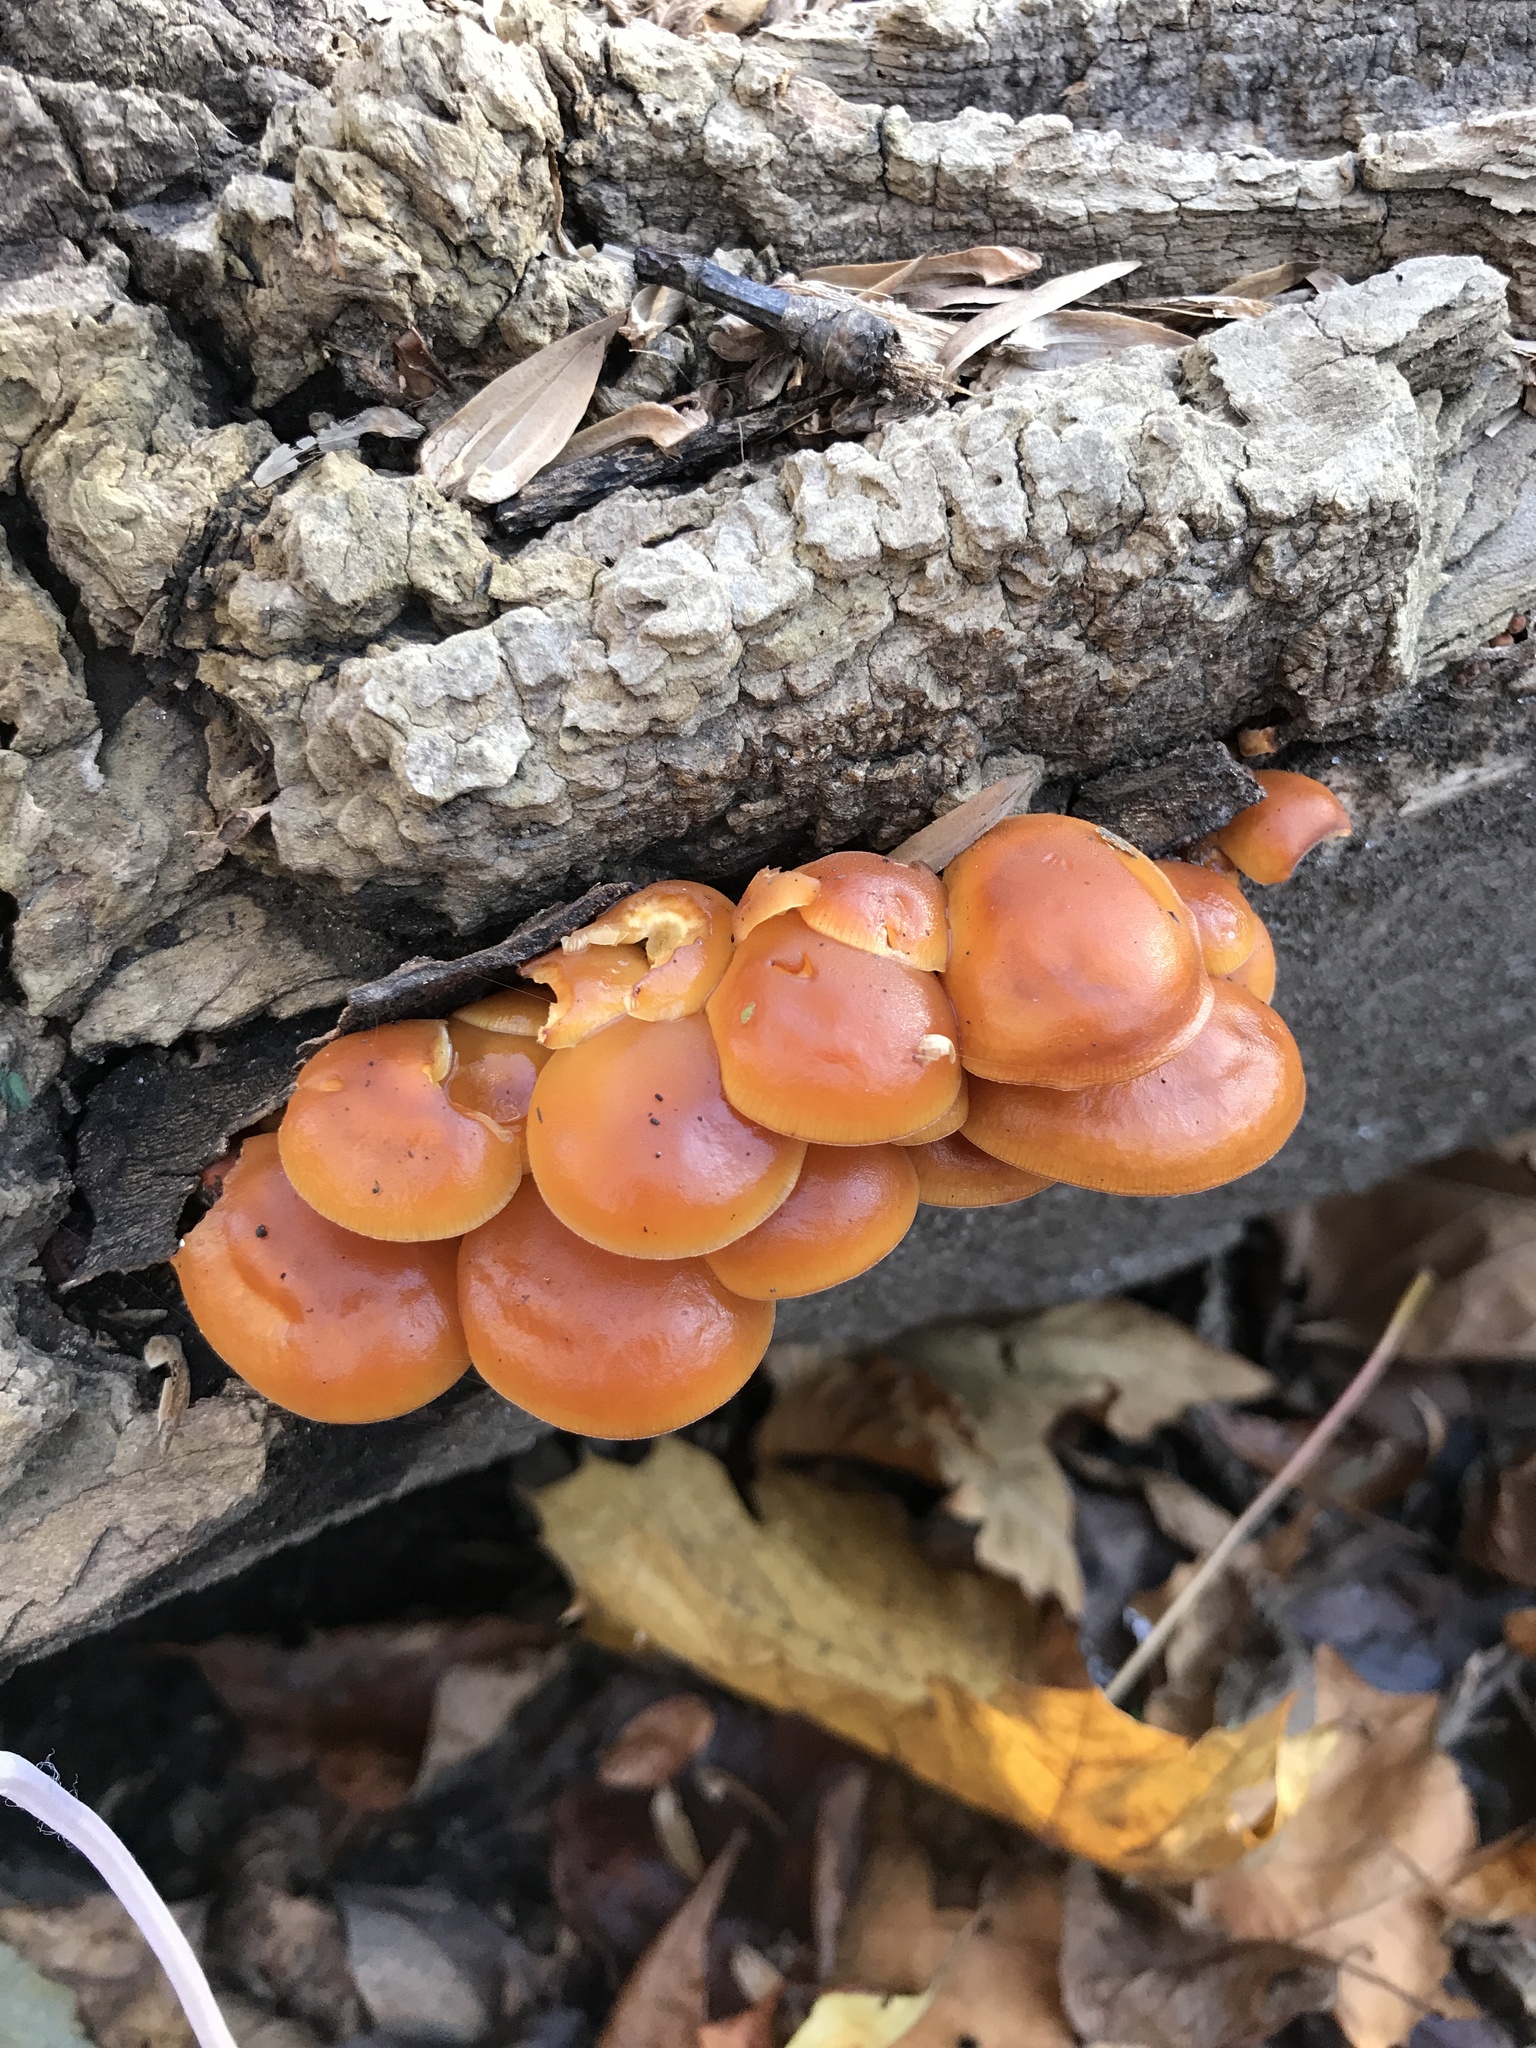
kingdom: Fungi
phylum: Basidiomycota
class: Agaricomycetes
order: Agaricales
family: Physalacriaceae
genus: Flammulina
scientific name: Flammulina velutipes
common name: Velvet shank
